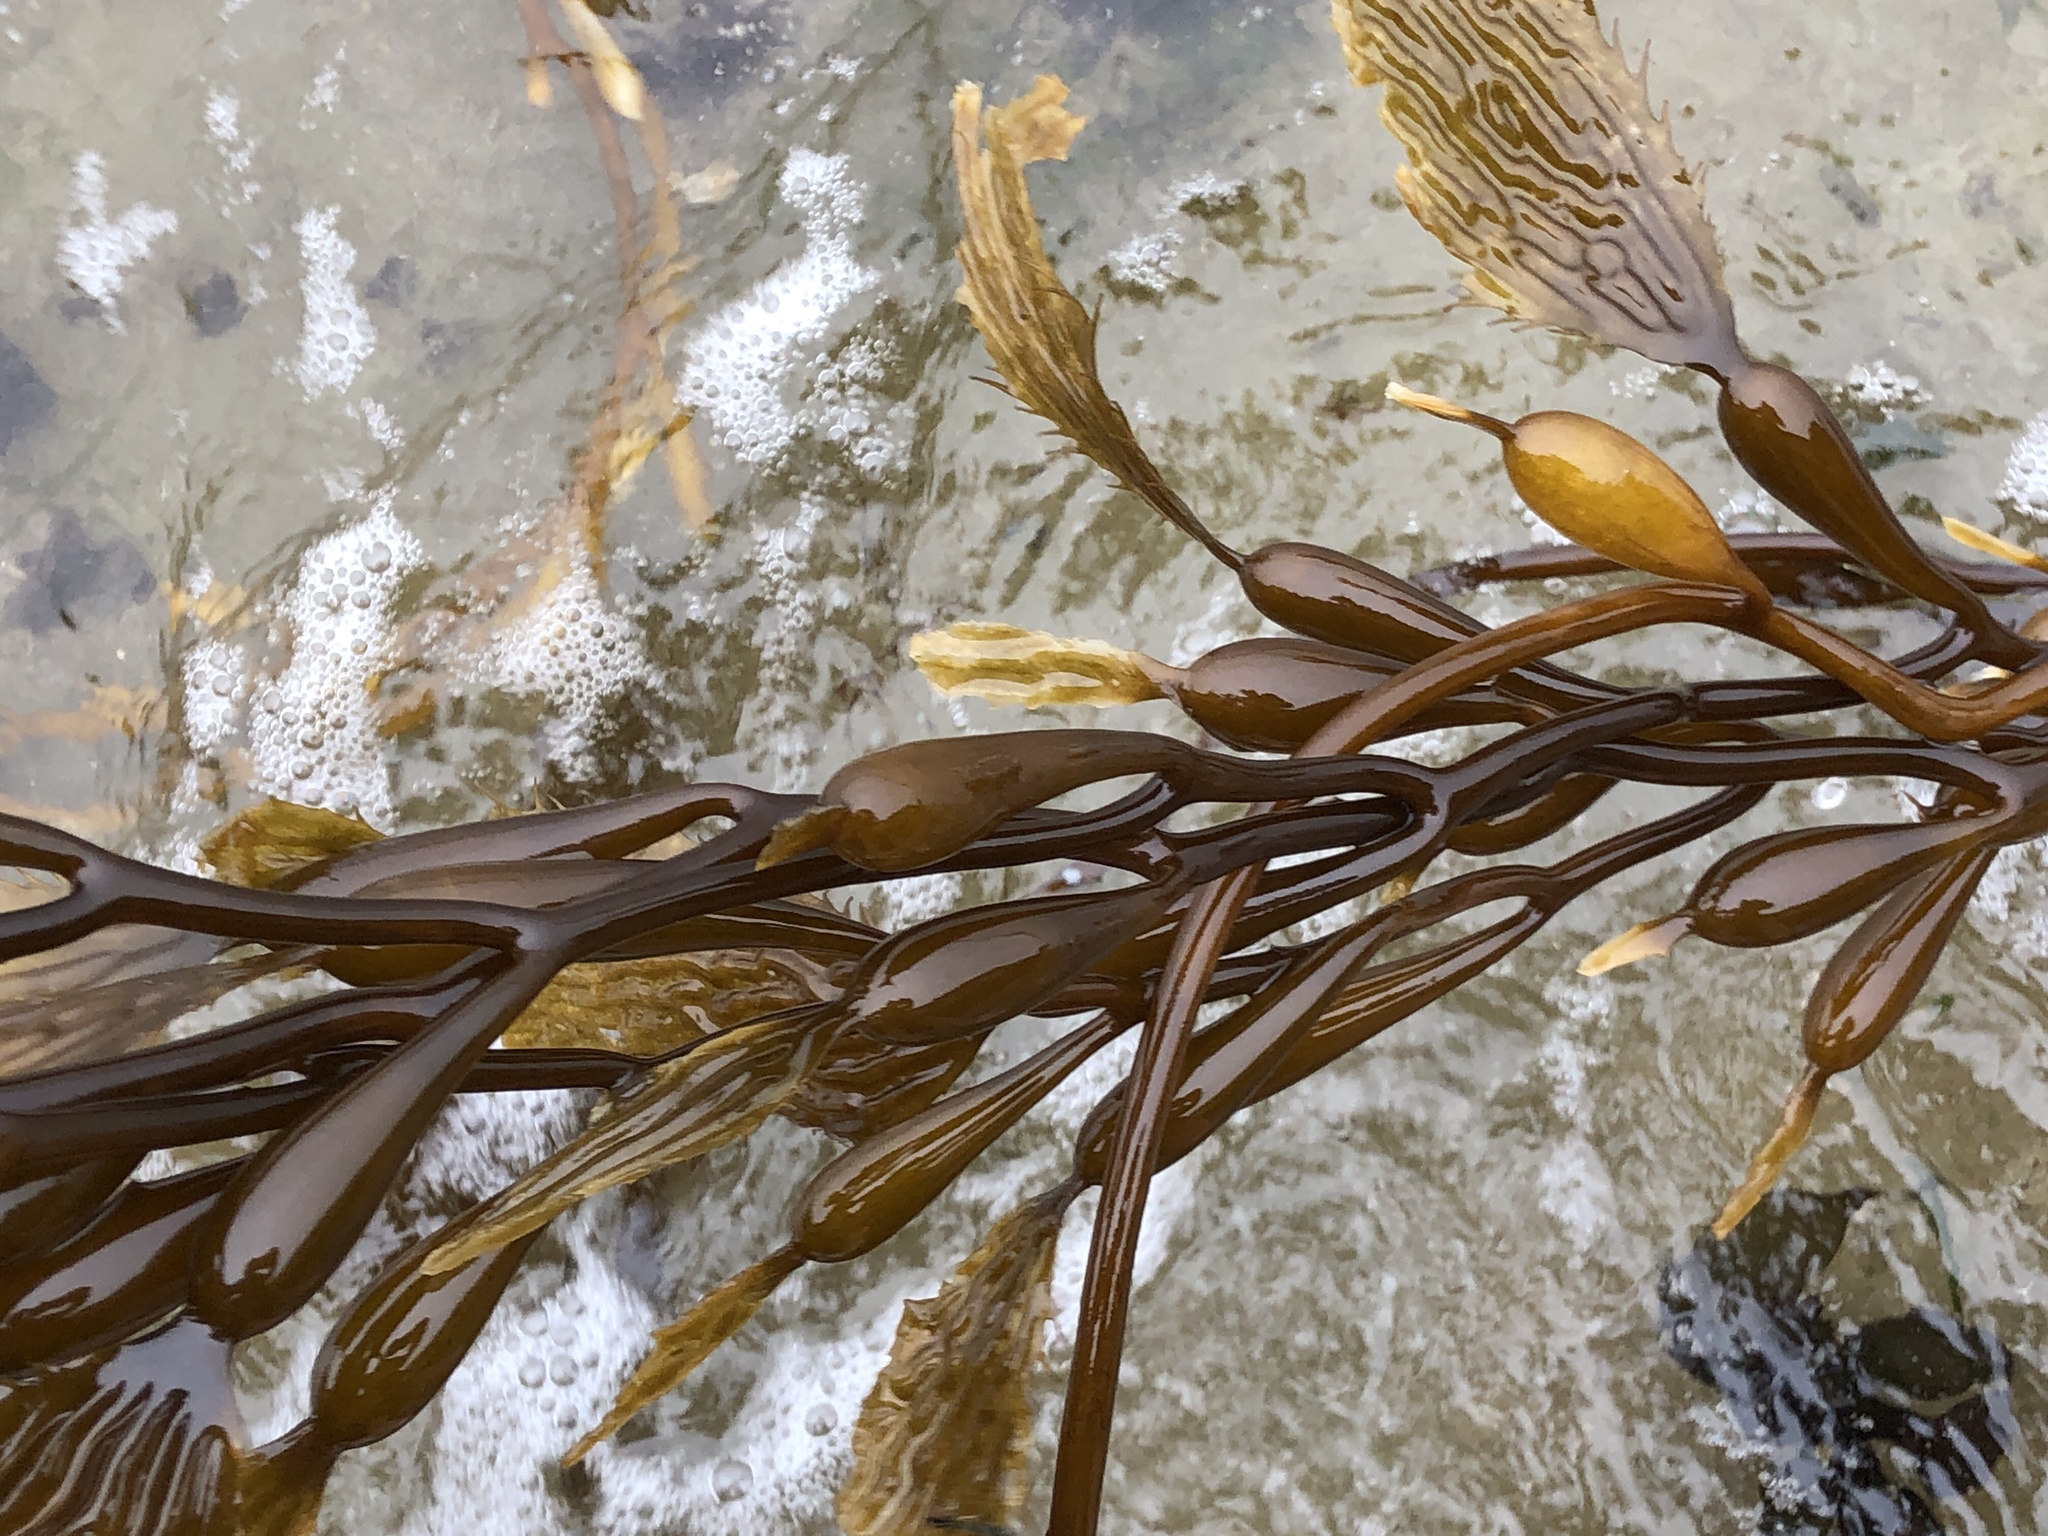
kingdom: Chromista
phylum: Ochrophyta
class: Phaeophyceae
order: Laminariales
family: Laminariaceae
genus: Macrocystis
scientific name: Macrocystis pyrifera
